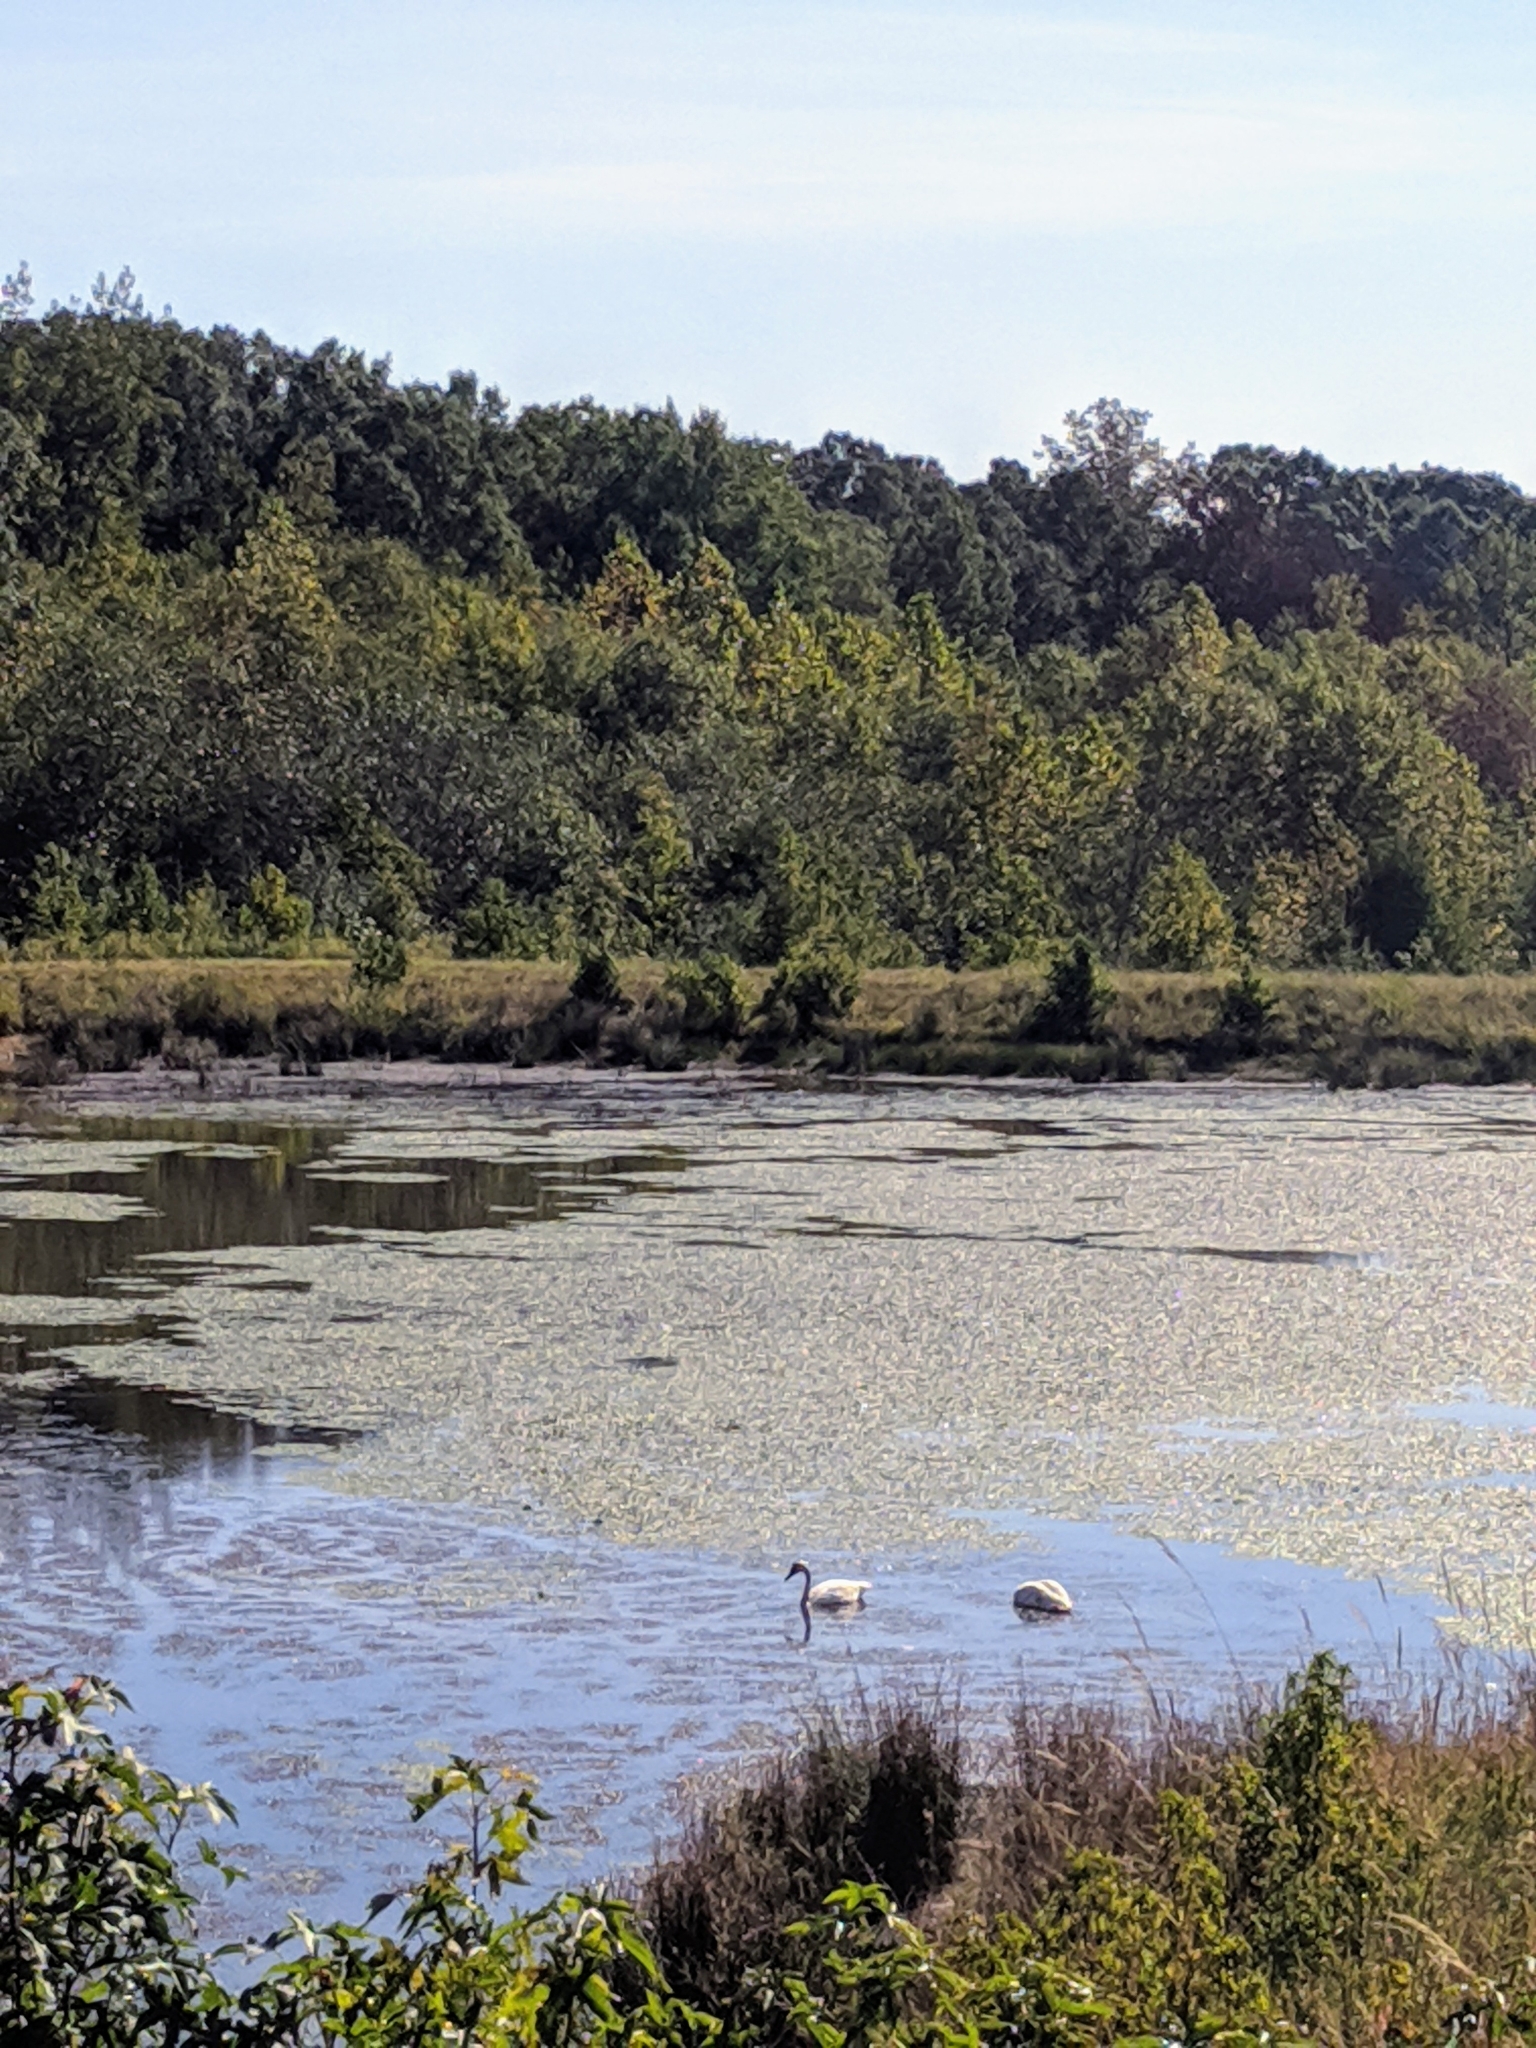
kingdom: Animalia
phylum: Chordata
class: Aves
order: Anseriformes
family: Anatidae
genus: Cygnus
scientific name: Cygnus buccinator
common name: Trumpeter swan
